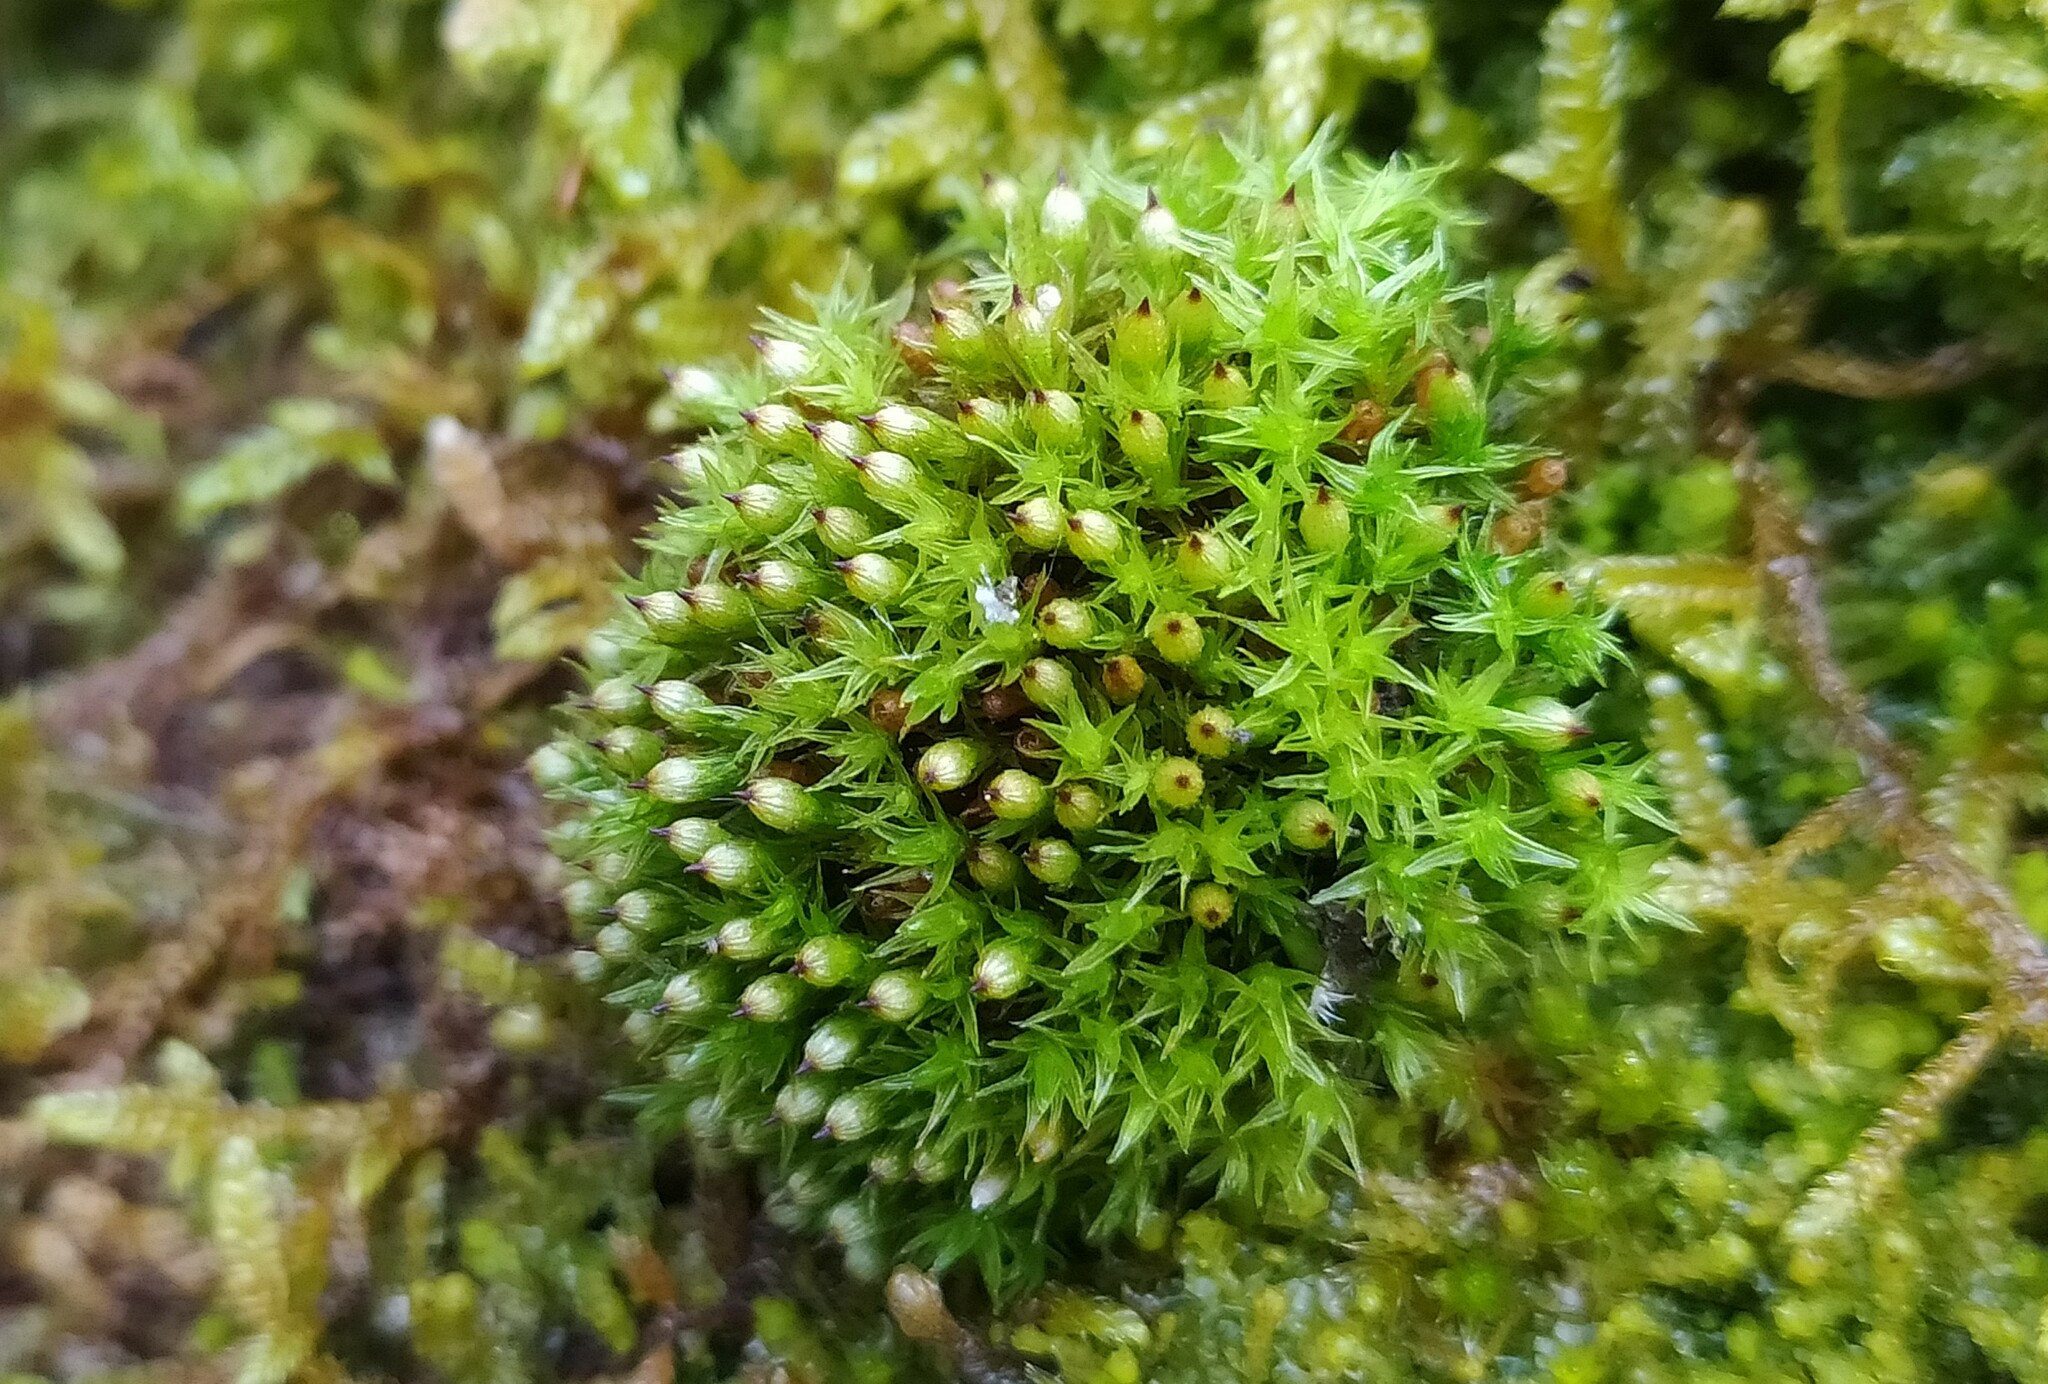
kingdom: Plantae
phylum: Bryophyta
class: Bryopsida
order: Orthotrichales
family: Orthotrichaceae
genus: Orthotrichum
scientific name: Orthotrichum stramineum
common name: Straw bristle-moss
